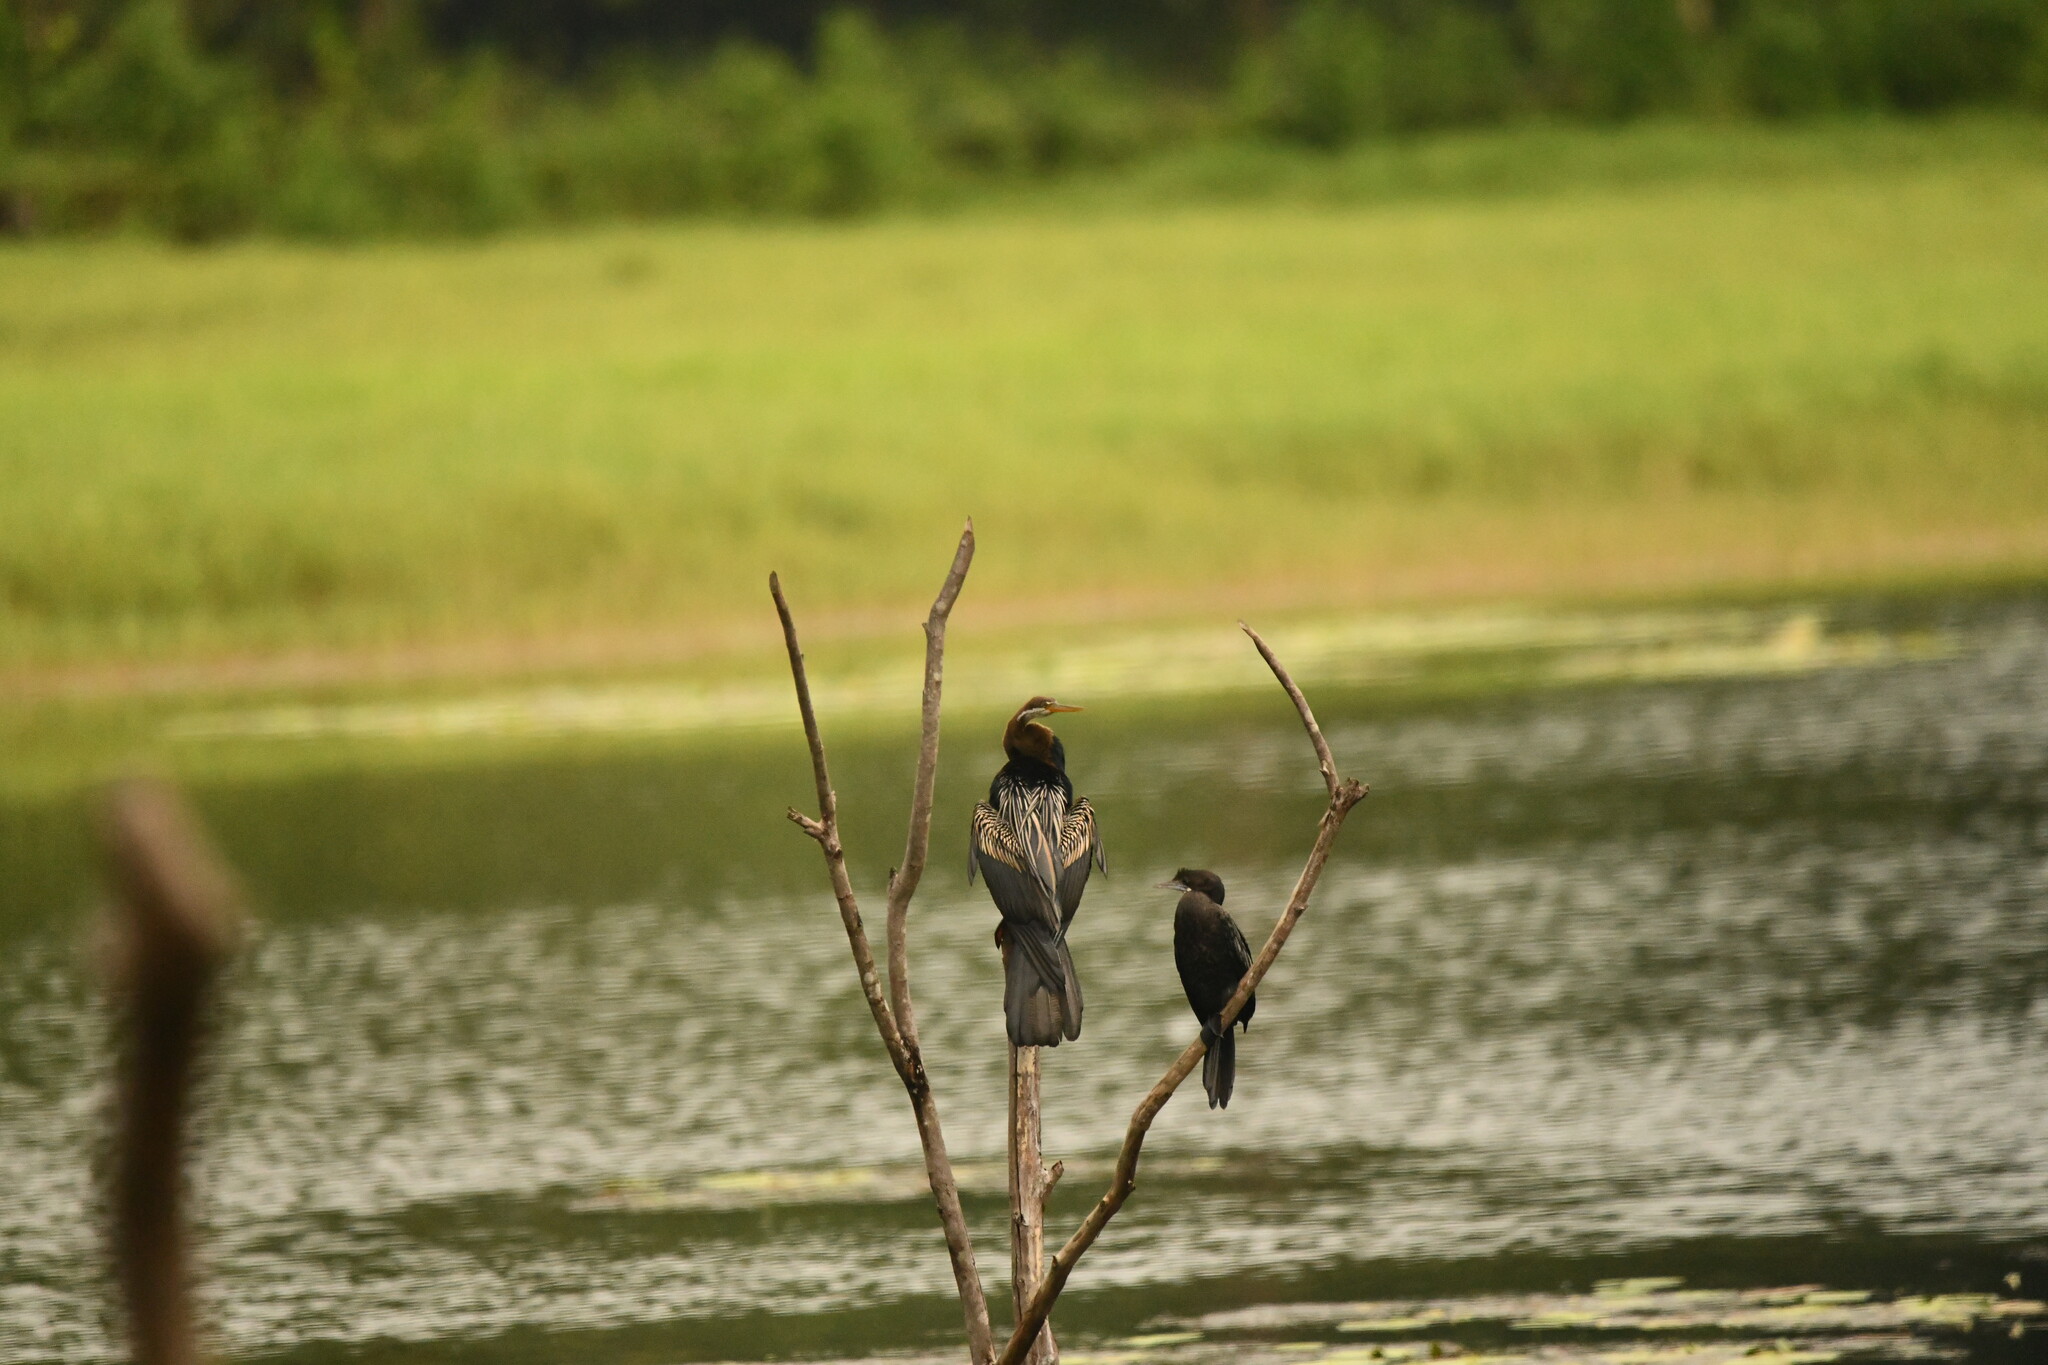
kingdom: Animalia
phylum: Chordata
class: Aves
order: Suliformes
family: Anhingidae
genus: Anhinga
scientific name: Anhinga melanogaster
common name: Oriental darter
